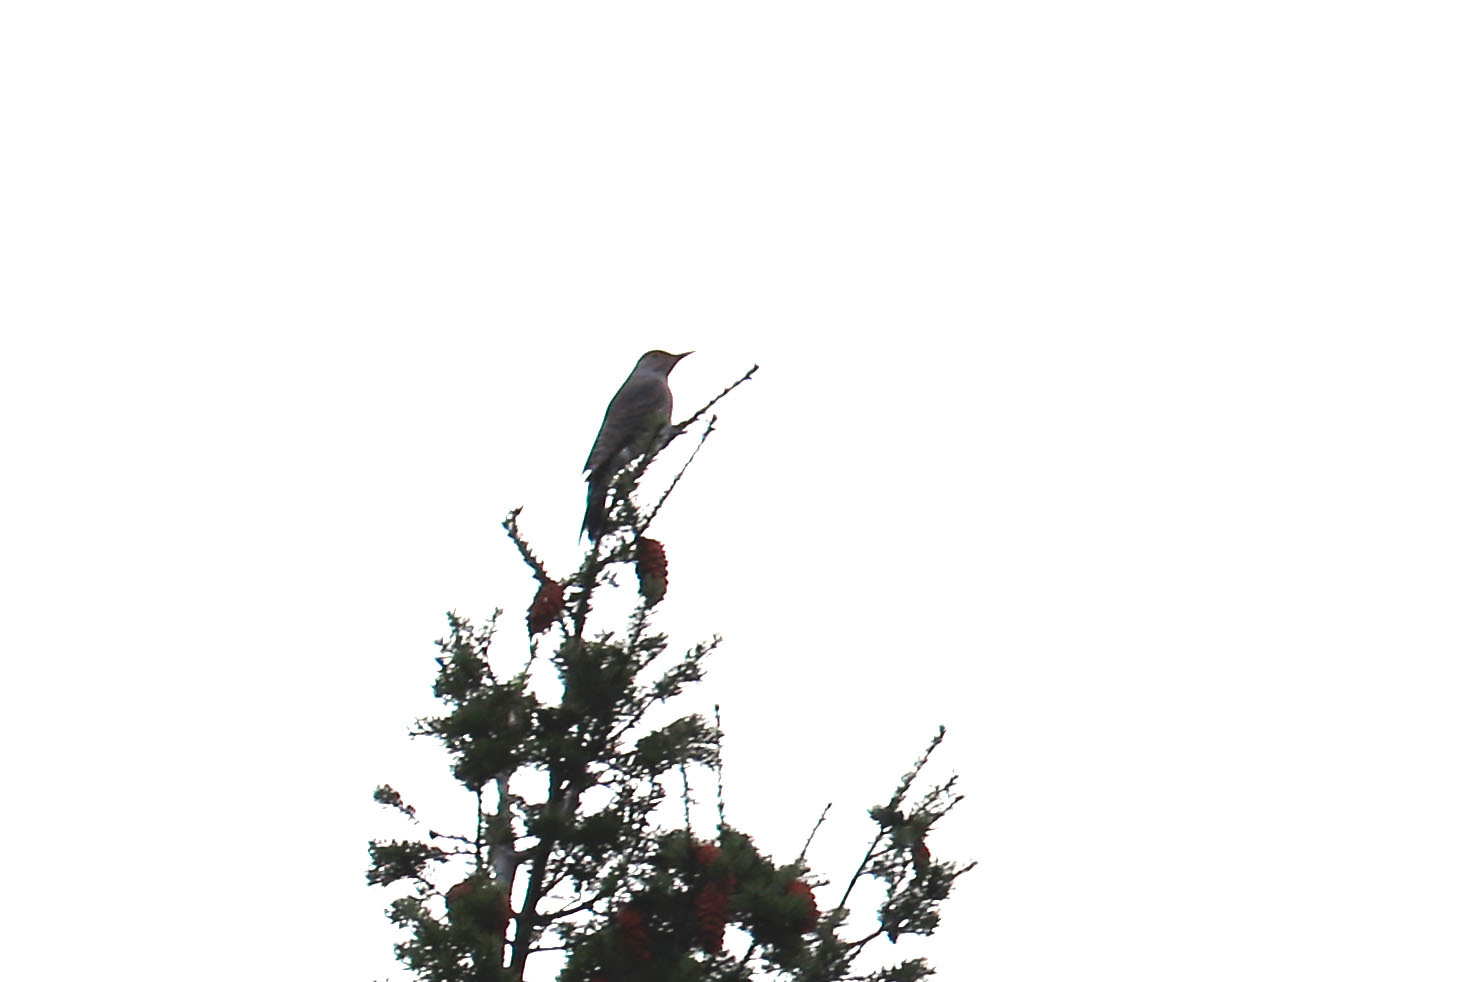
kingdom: Animalia
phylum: Chordata
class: Aves
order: Piciformes
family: Picidae
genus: Colaptes
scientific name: Colaptes auratus
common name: Northern flicker
